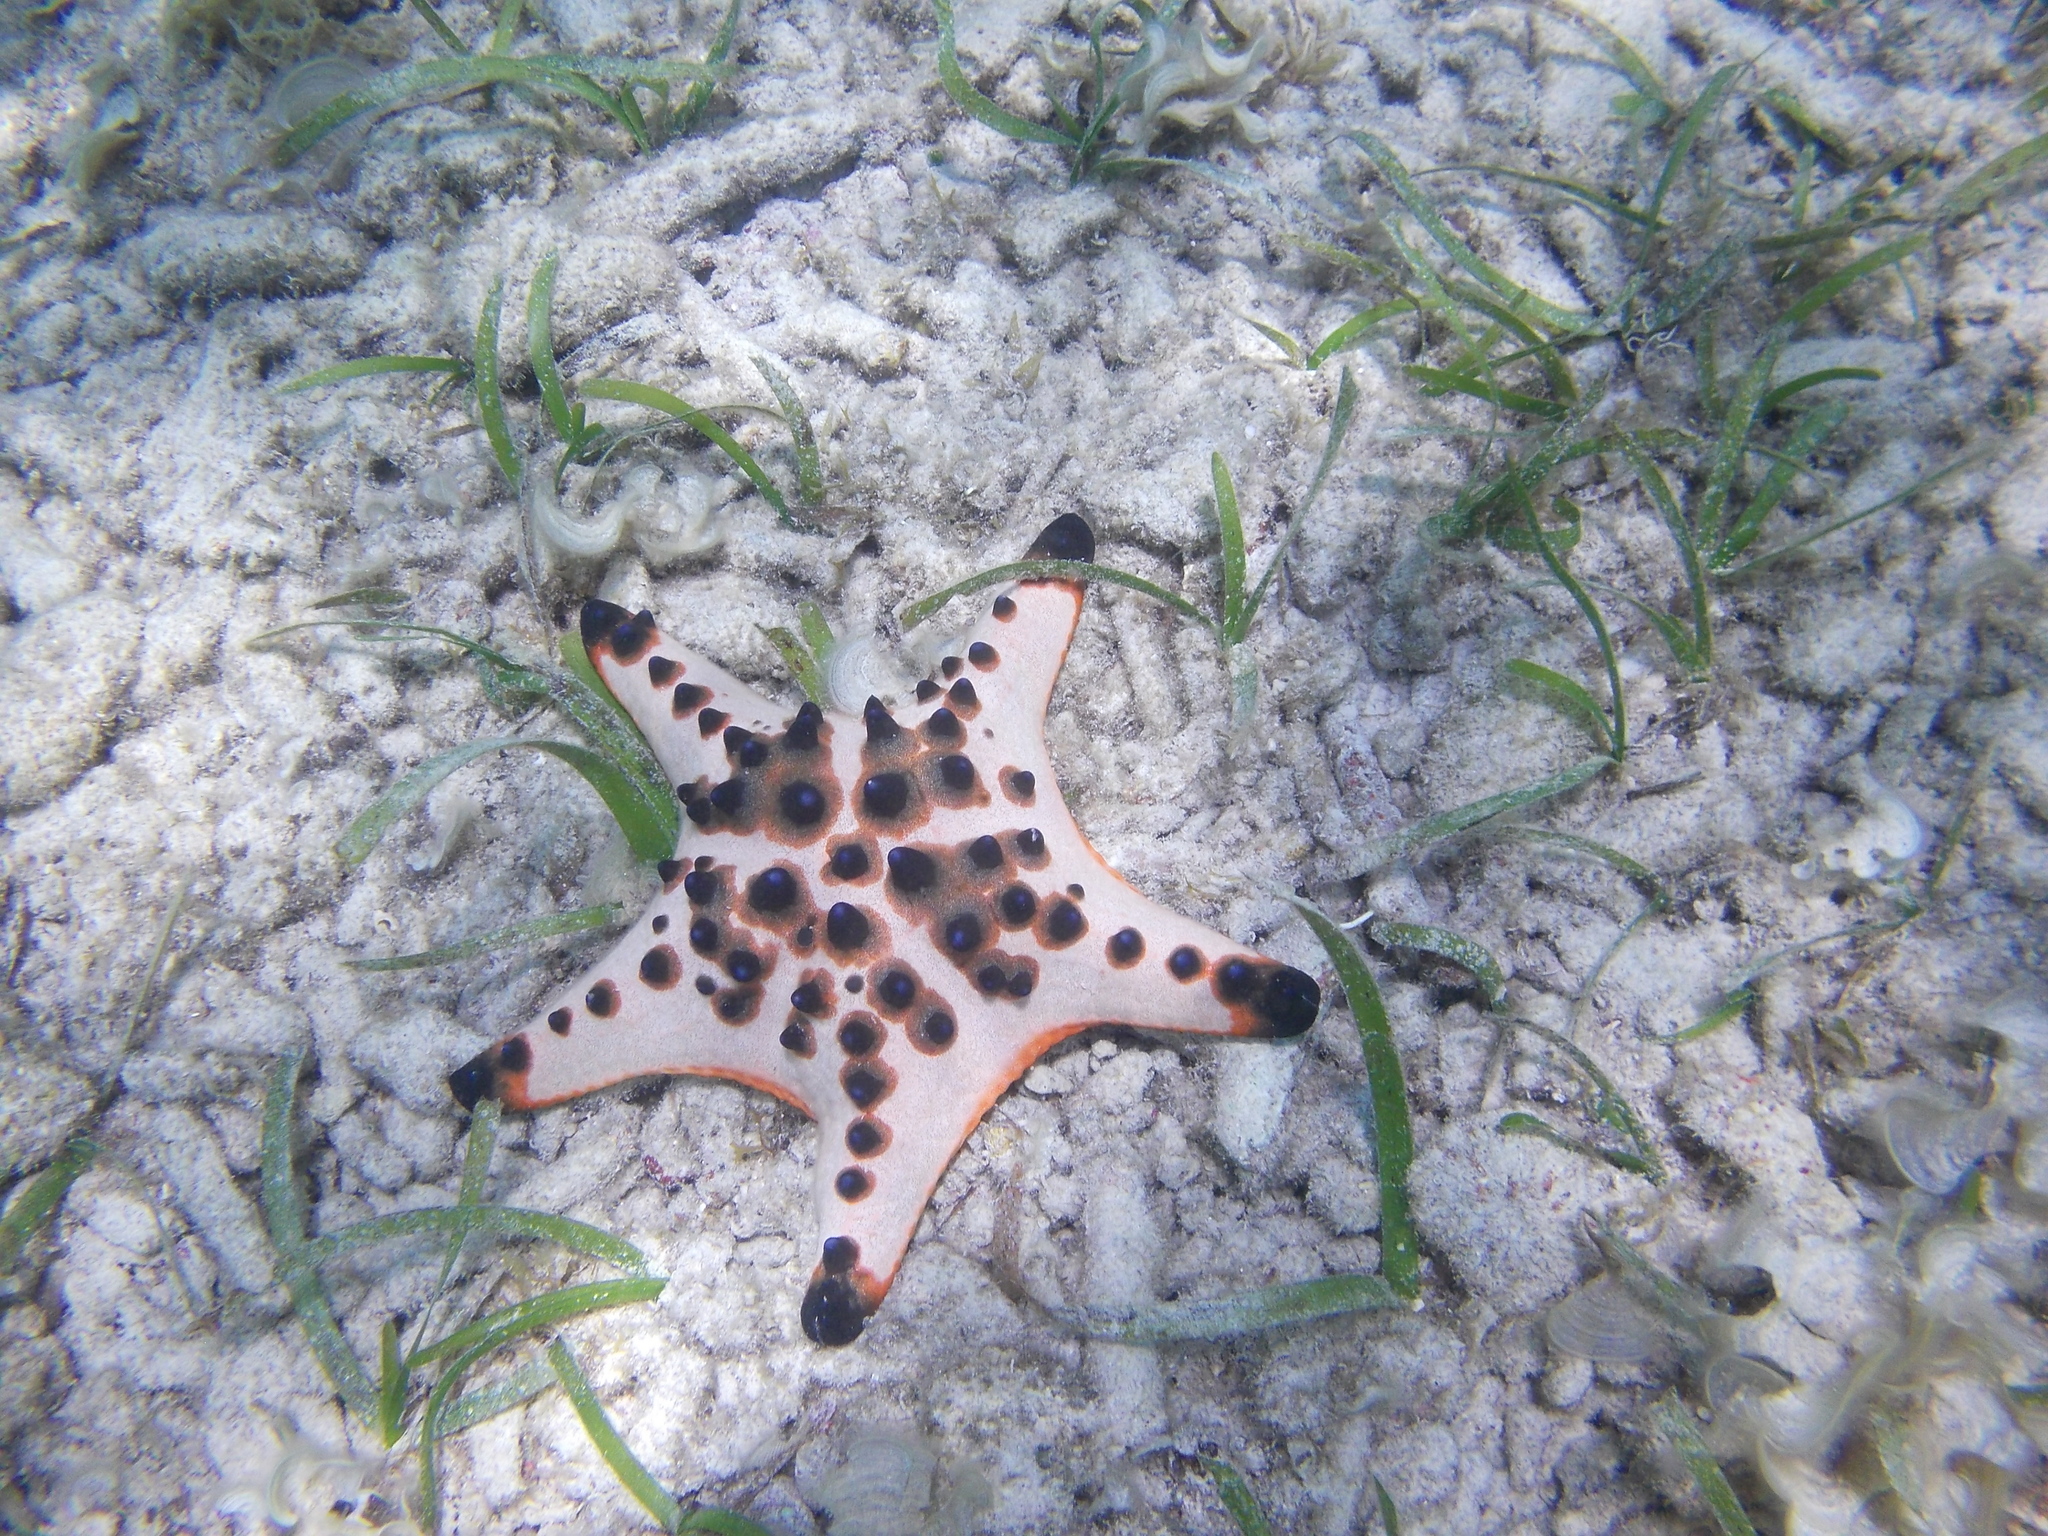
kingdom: Animalia
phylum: Echinodermata
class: Asteroidea
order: Valvatida
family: Oreasteridae
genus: Protoreaster
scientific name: Protoreaster nodosus
